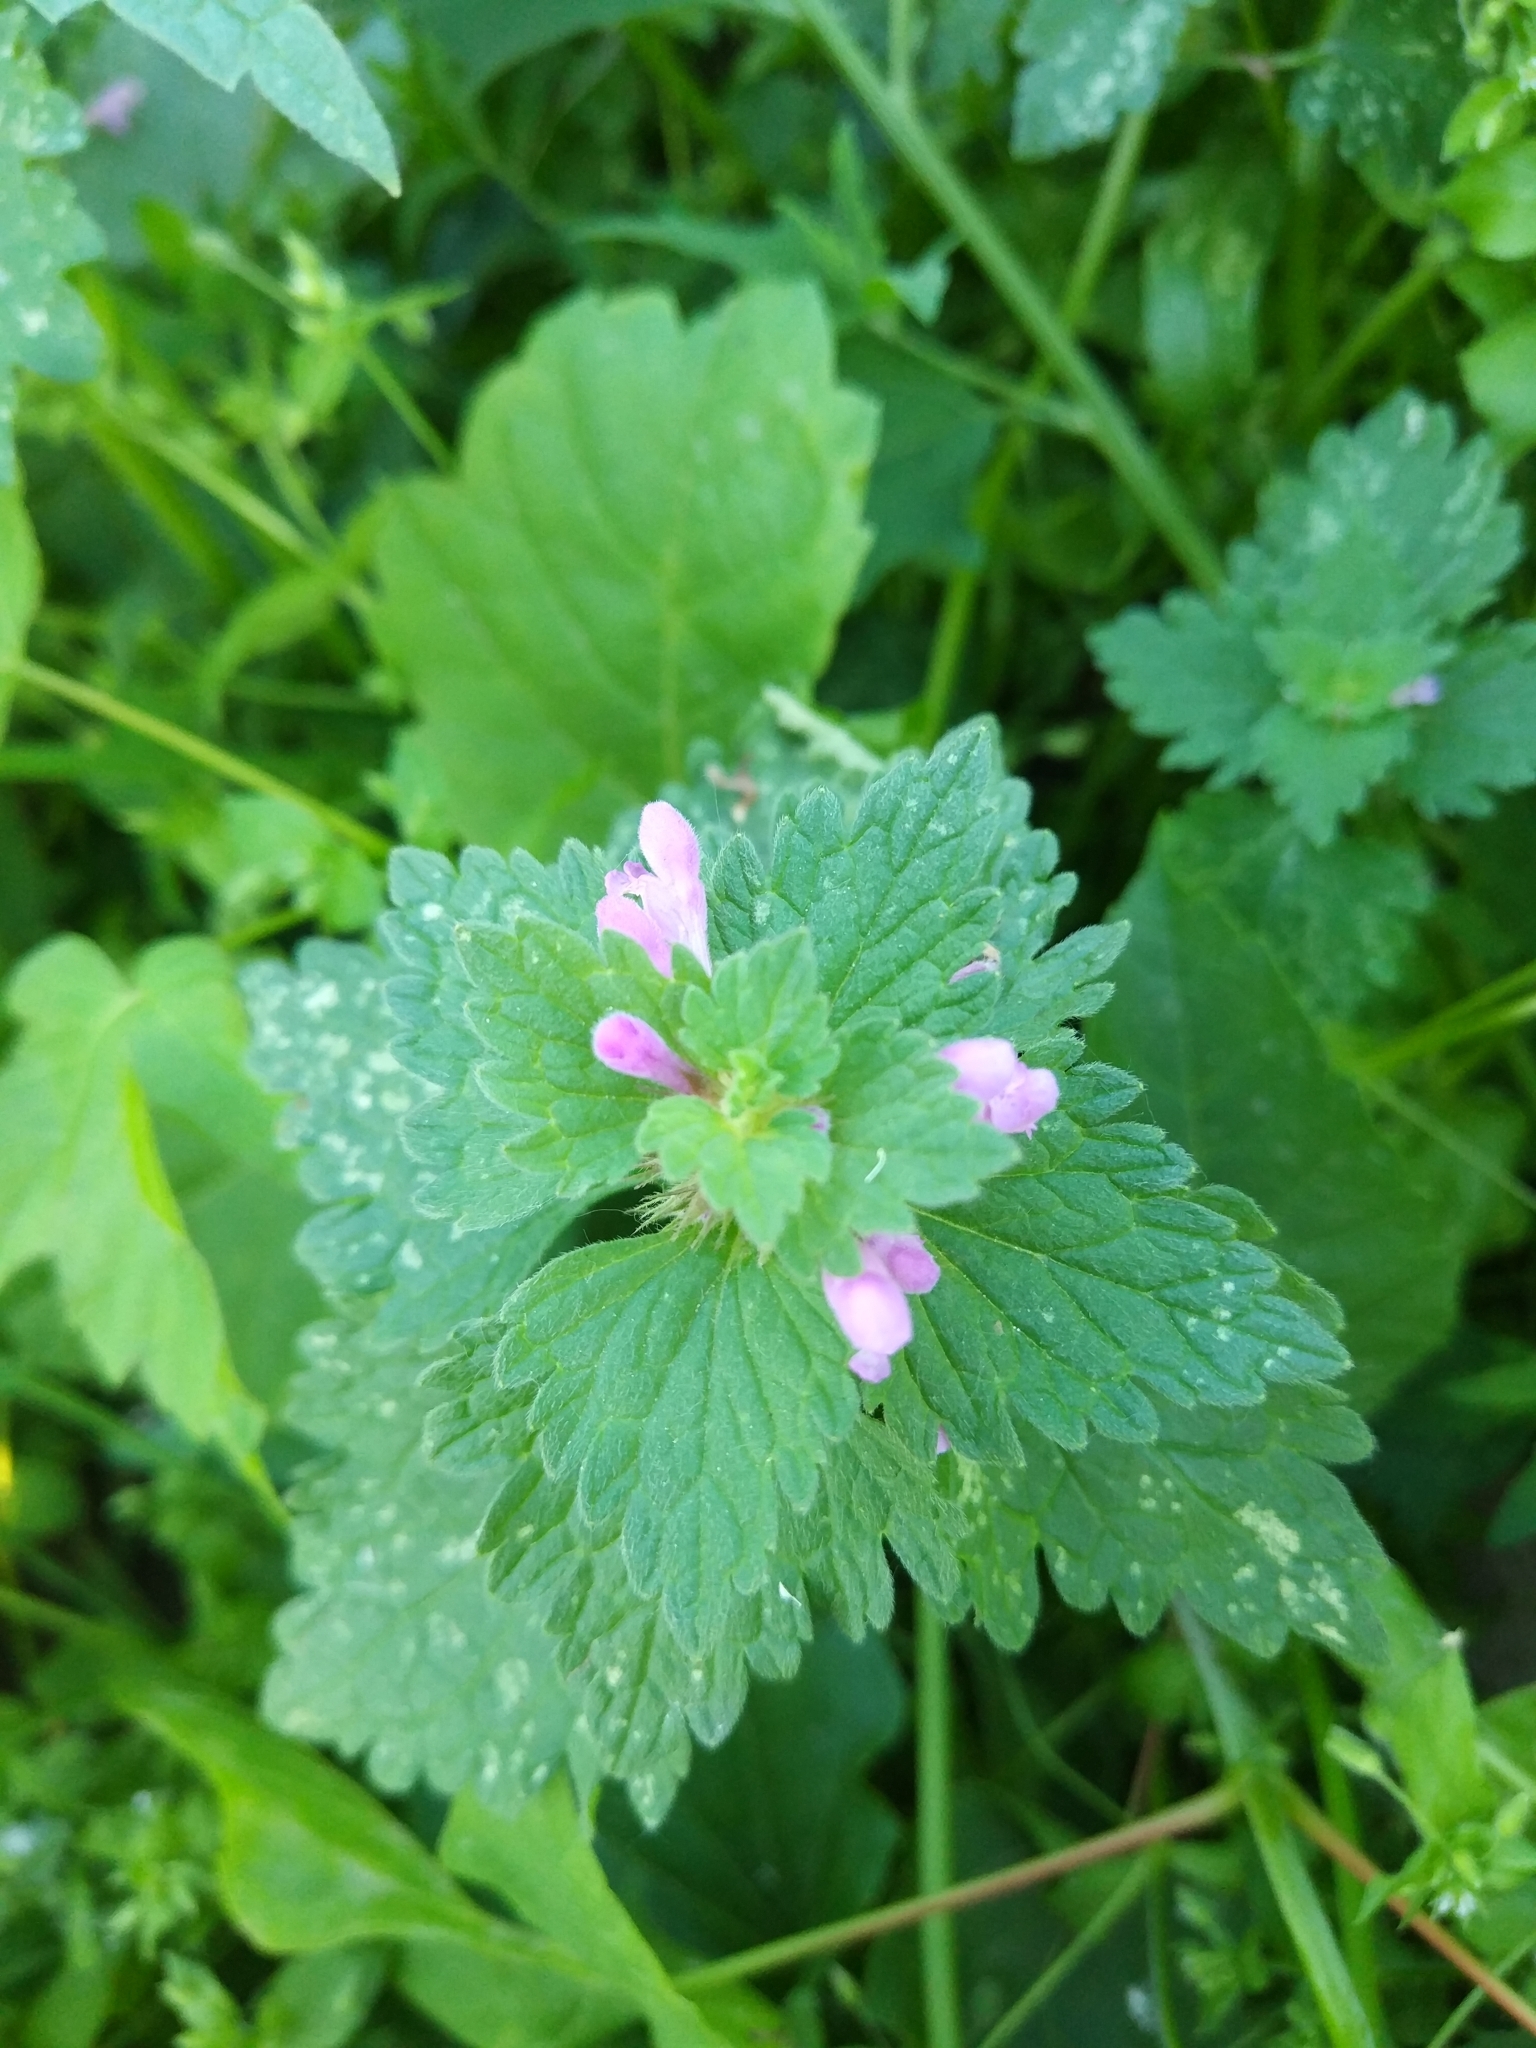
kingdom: Plantae
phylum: Tracheophyta
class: Magnoliopsida
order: Lamiales
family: Lamiaceae
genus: Lamium
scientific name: Lamium purpureum
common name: Red dead-nettle
